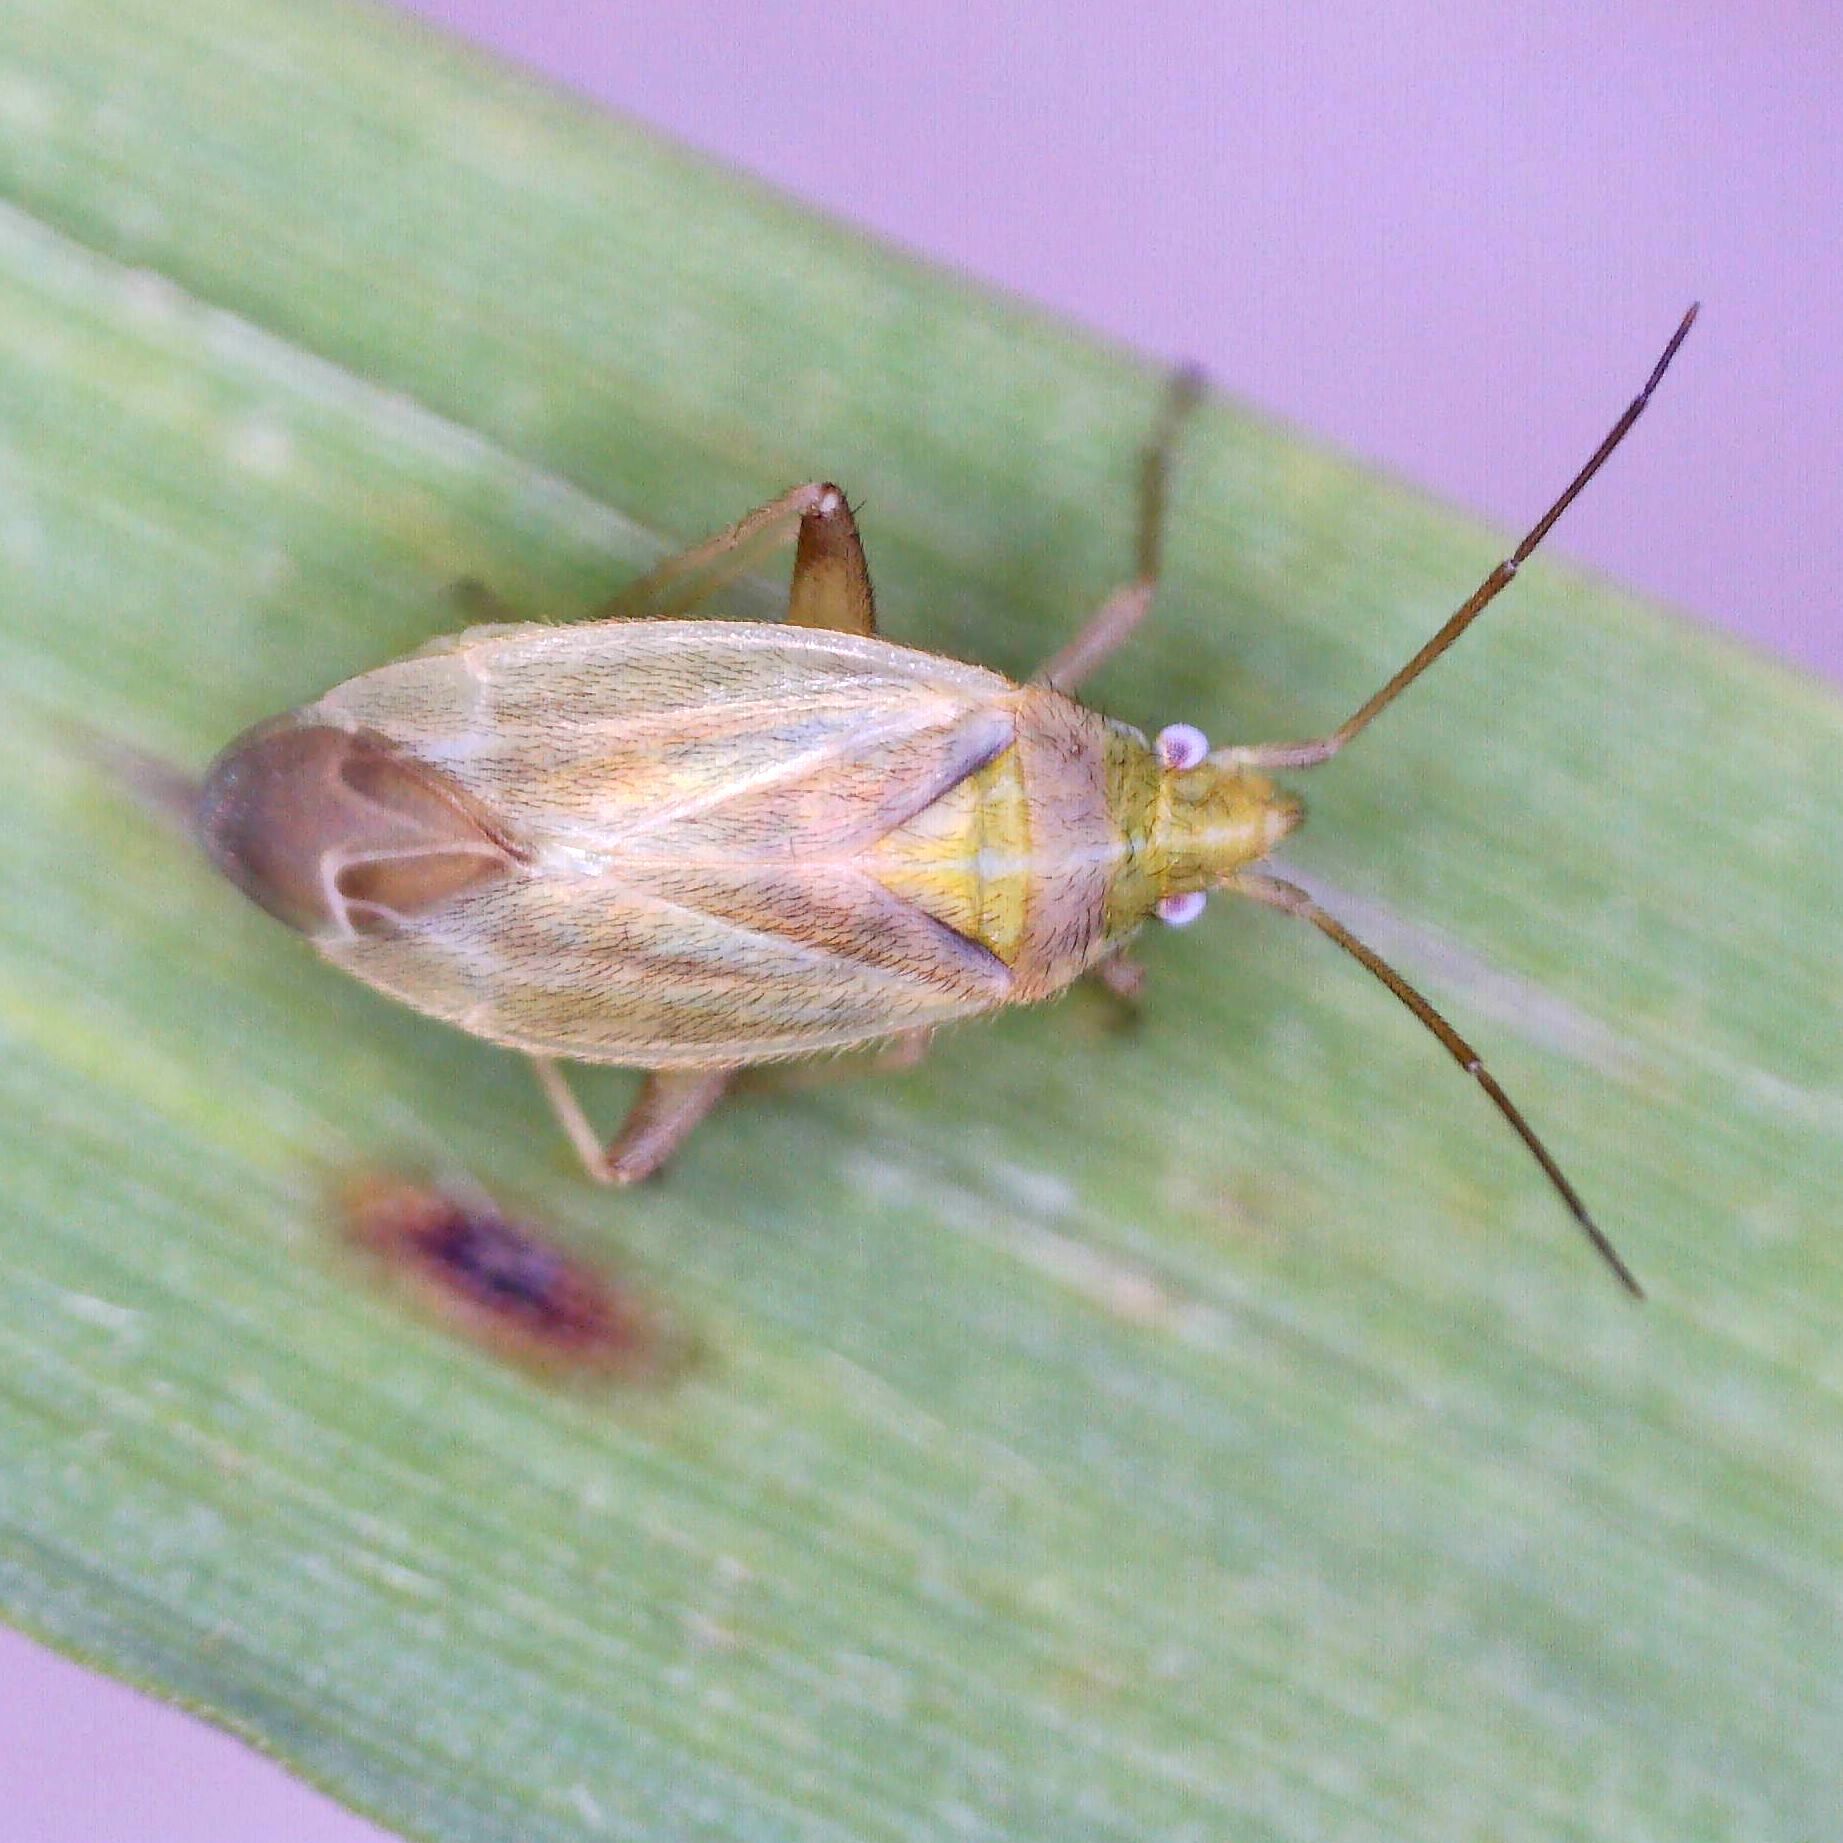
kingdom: Animalia
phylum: Arthropoda
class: Insecta
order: Hemiptera
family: Miridae
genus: Amblytylus
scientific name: Amblytylus nasutus
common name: Plant bug
